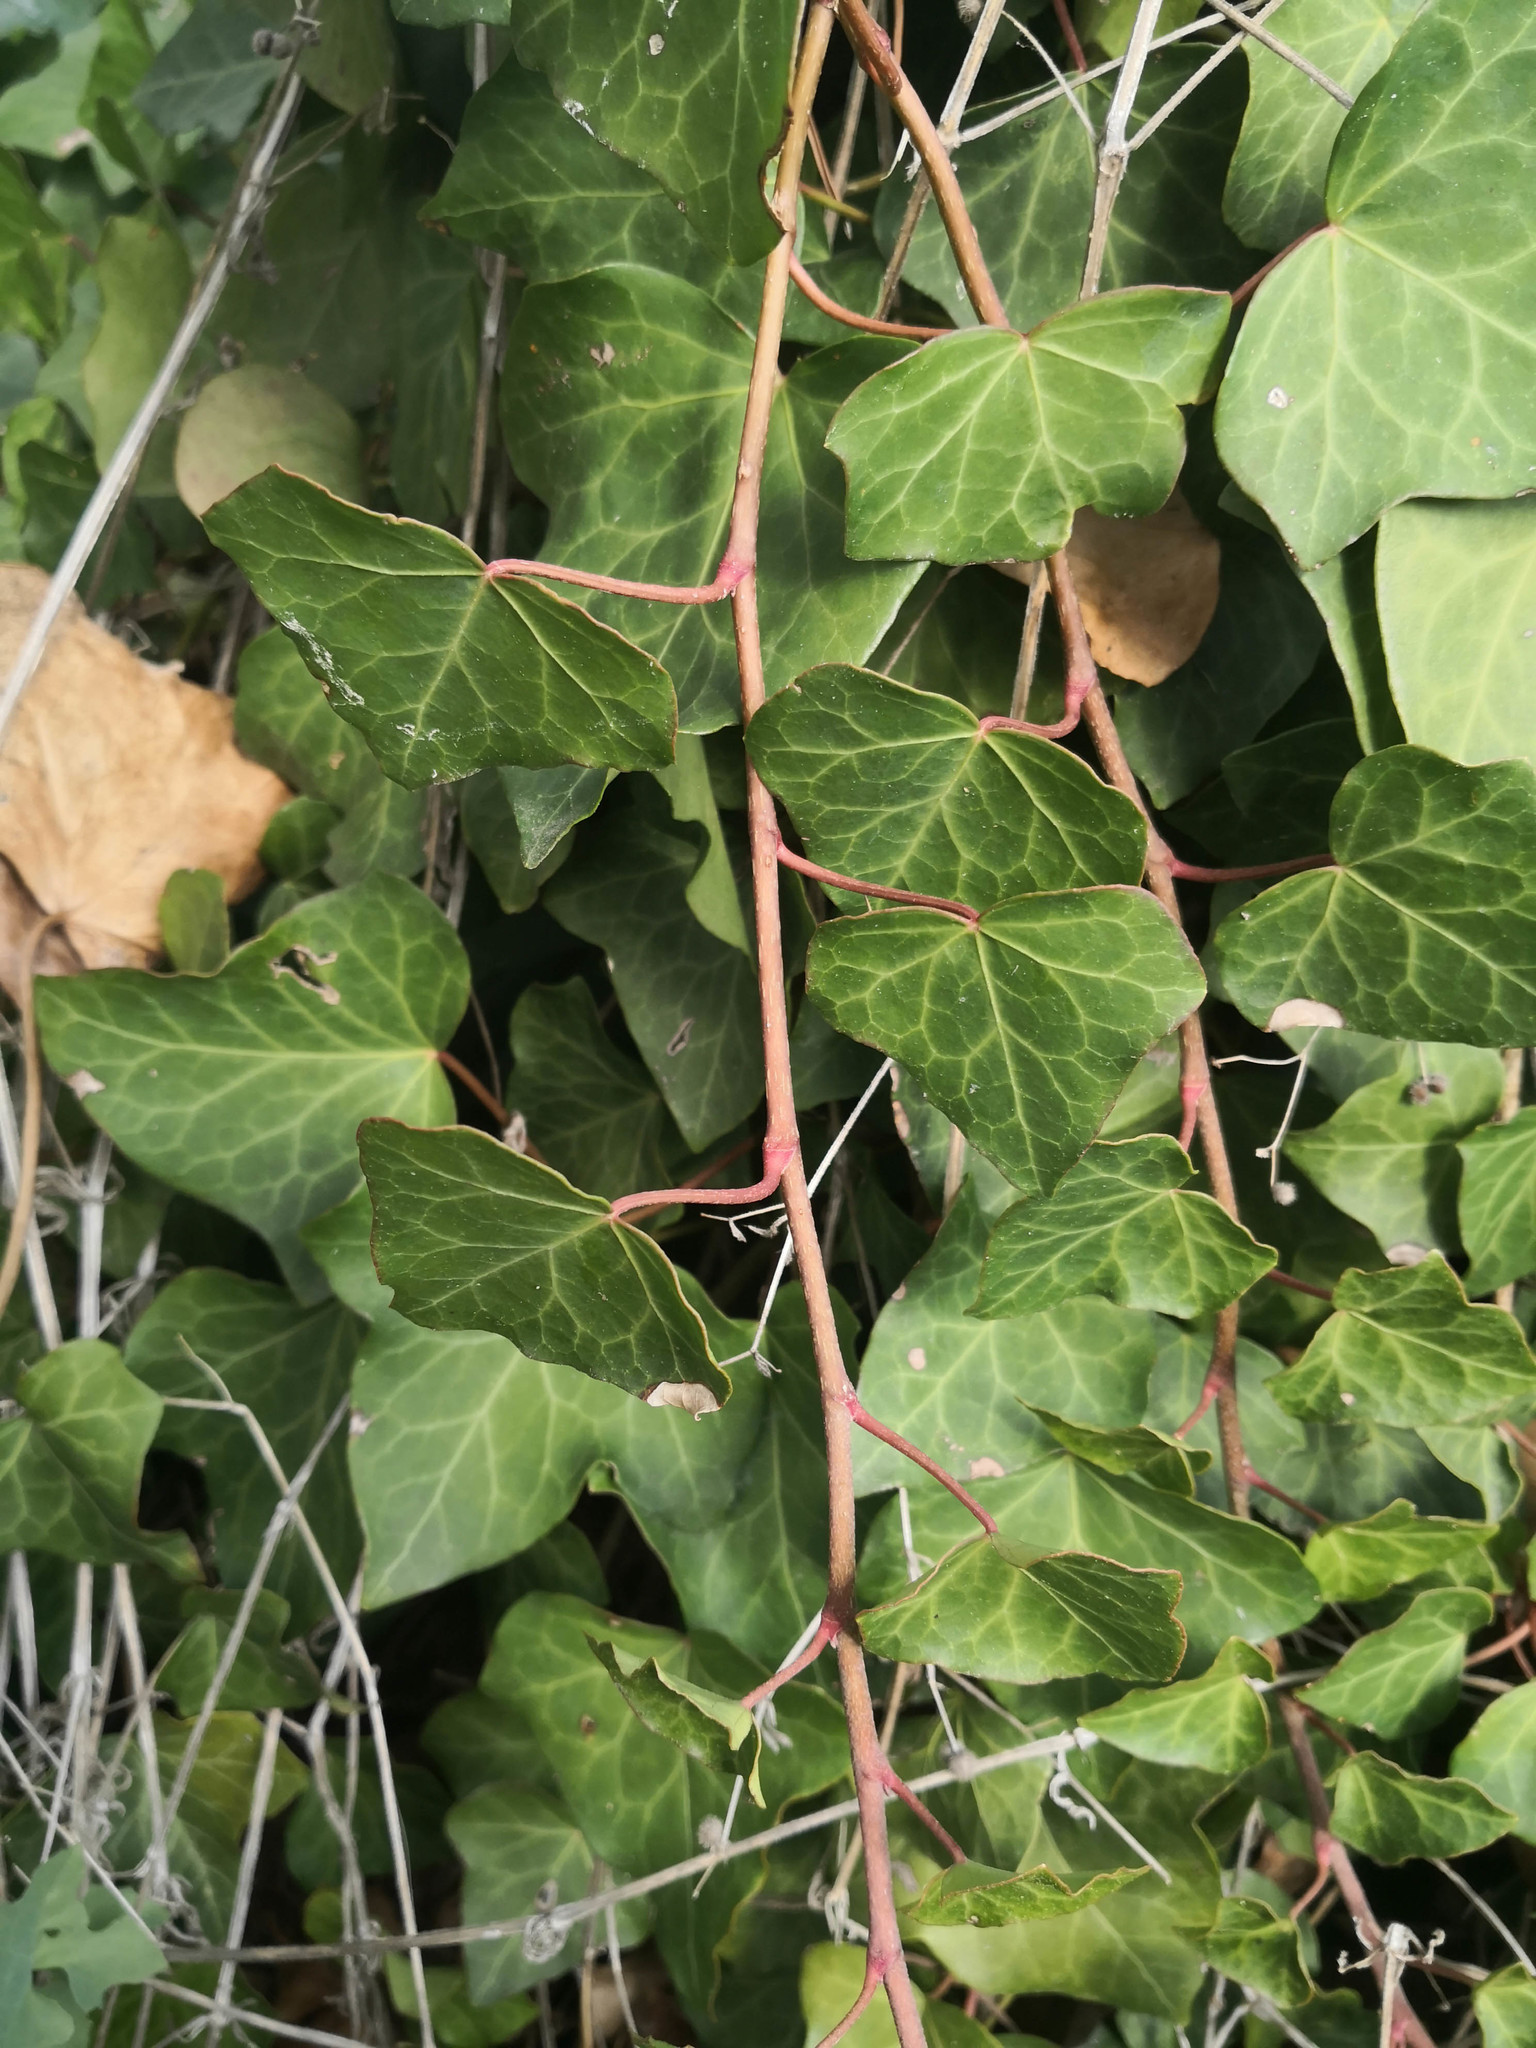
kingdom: Plantae
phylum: Tracheophyta
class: Magnoliopsida
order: Apiales
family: Araliaceae
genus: Hedera
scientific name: Hedera helix
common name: Ivy
